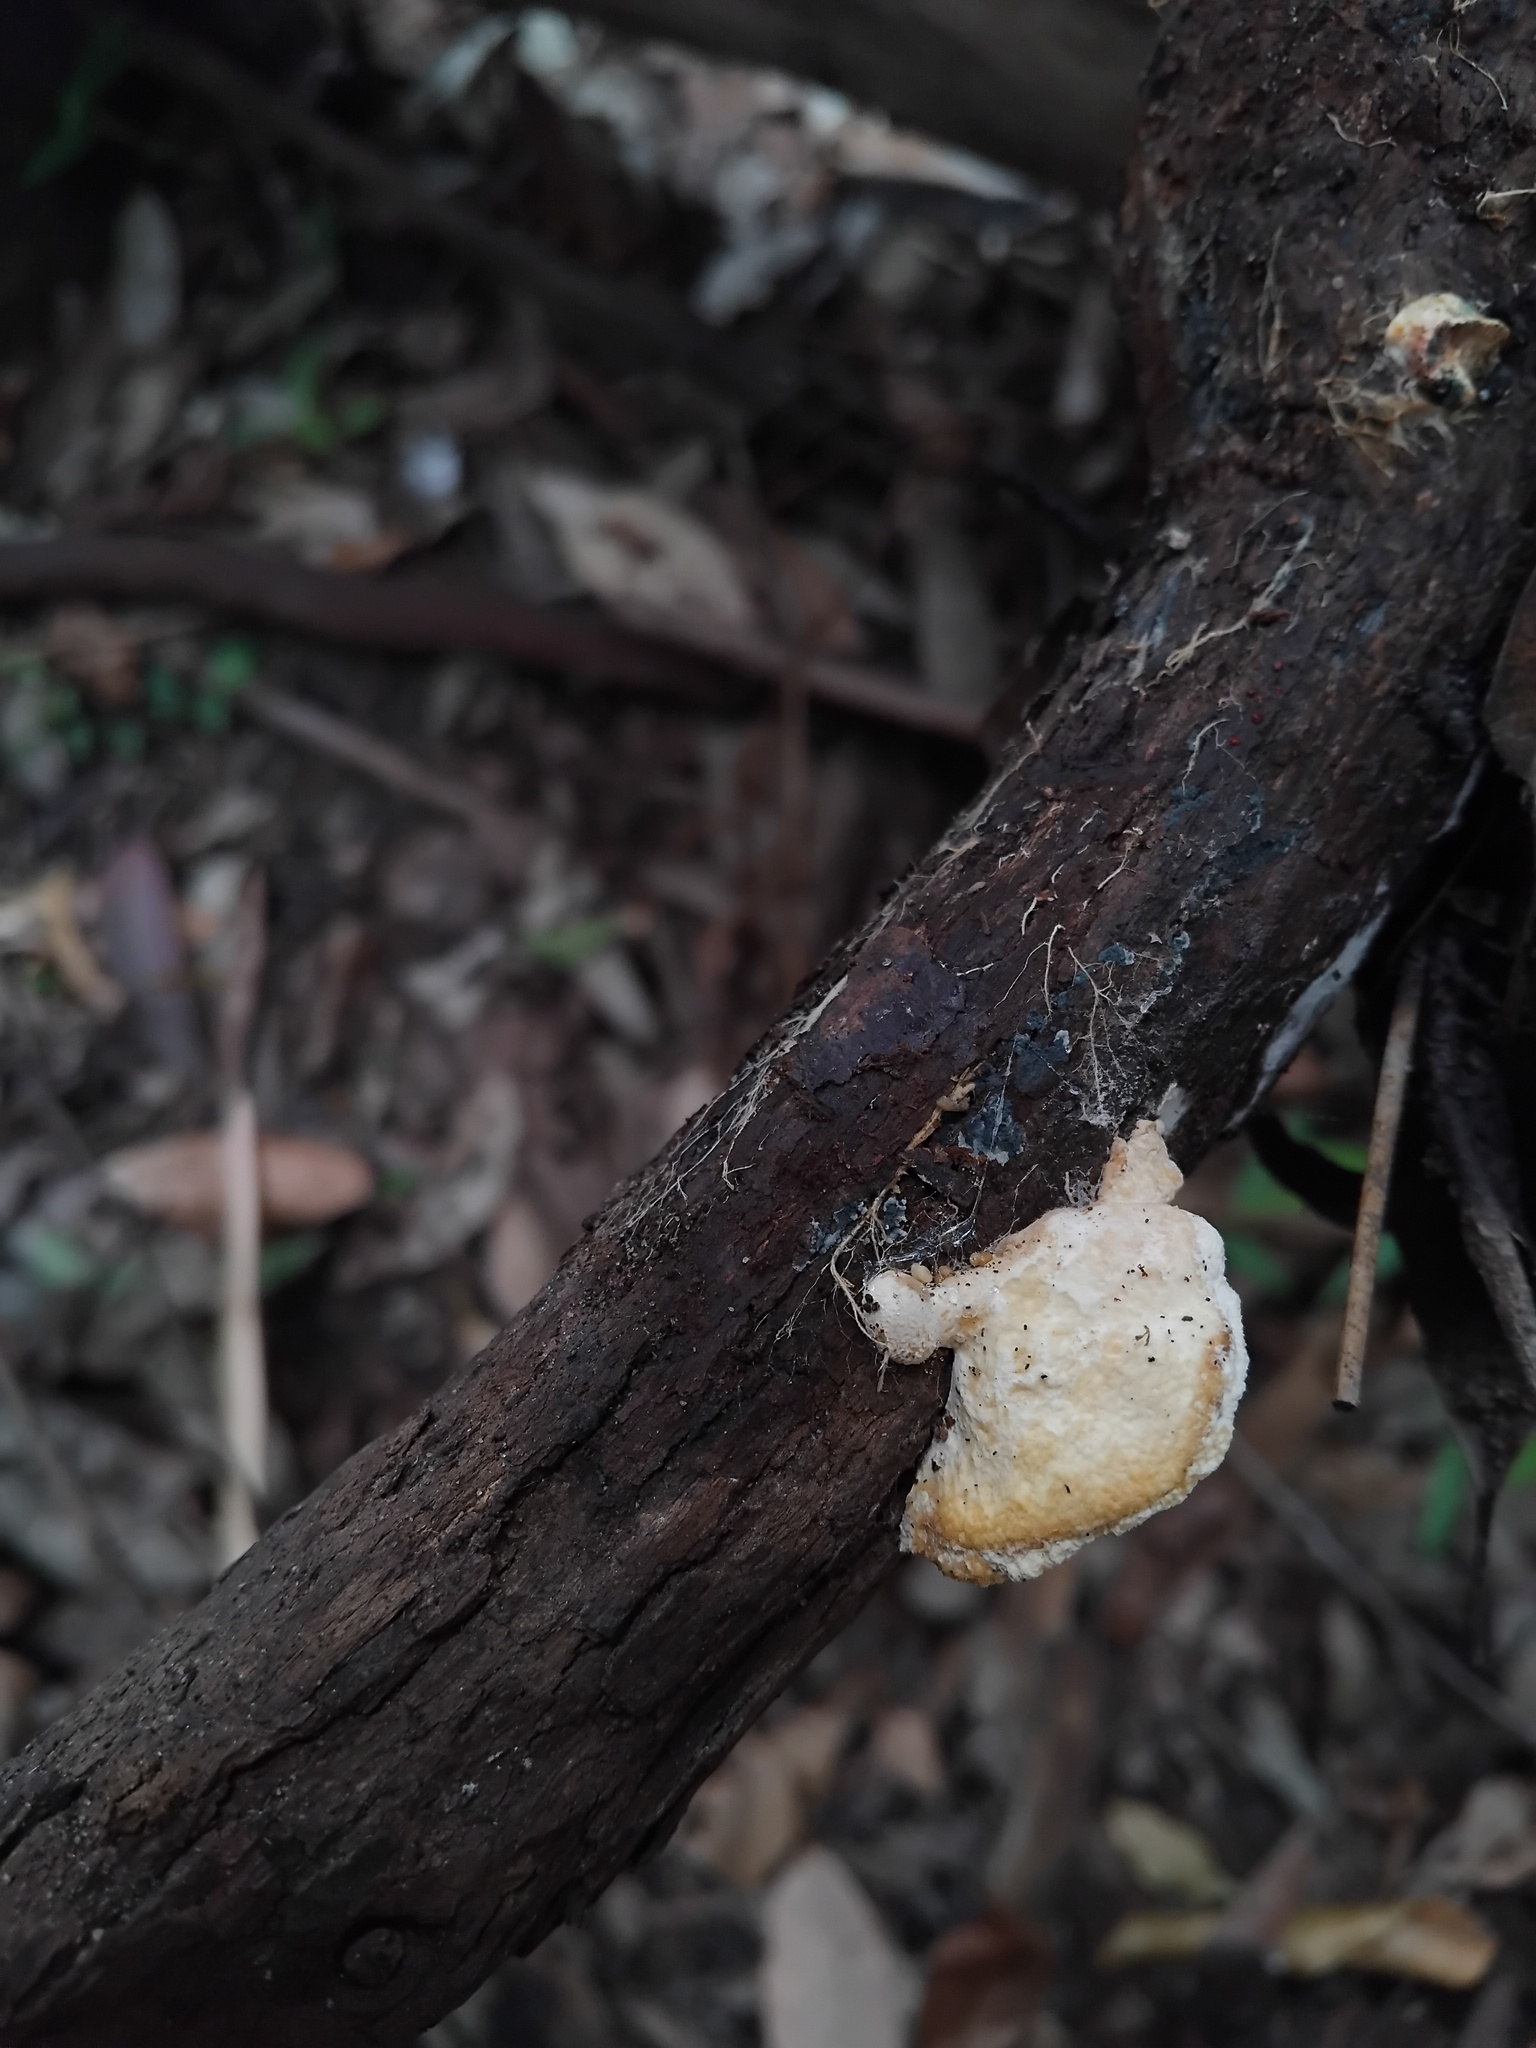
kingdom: Fungi
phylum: Basidiomycota
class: Agaricomycetes
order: Polyporales
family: Polyporaceae
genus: Truncospora
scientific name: Truncospora ochroleuca
